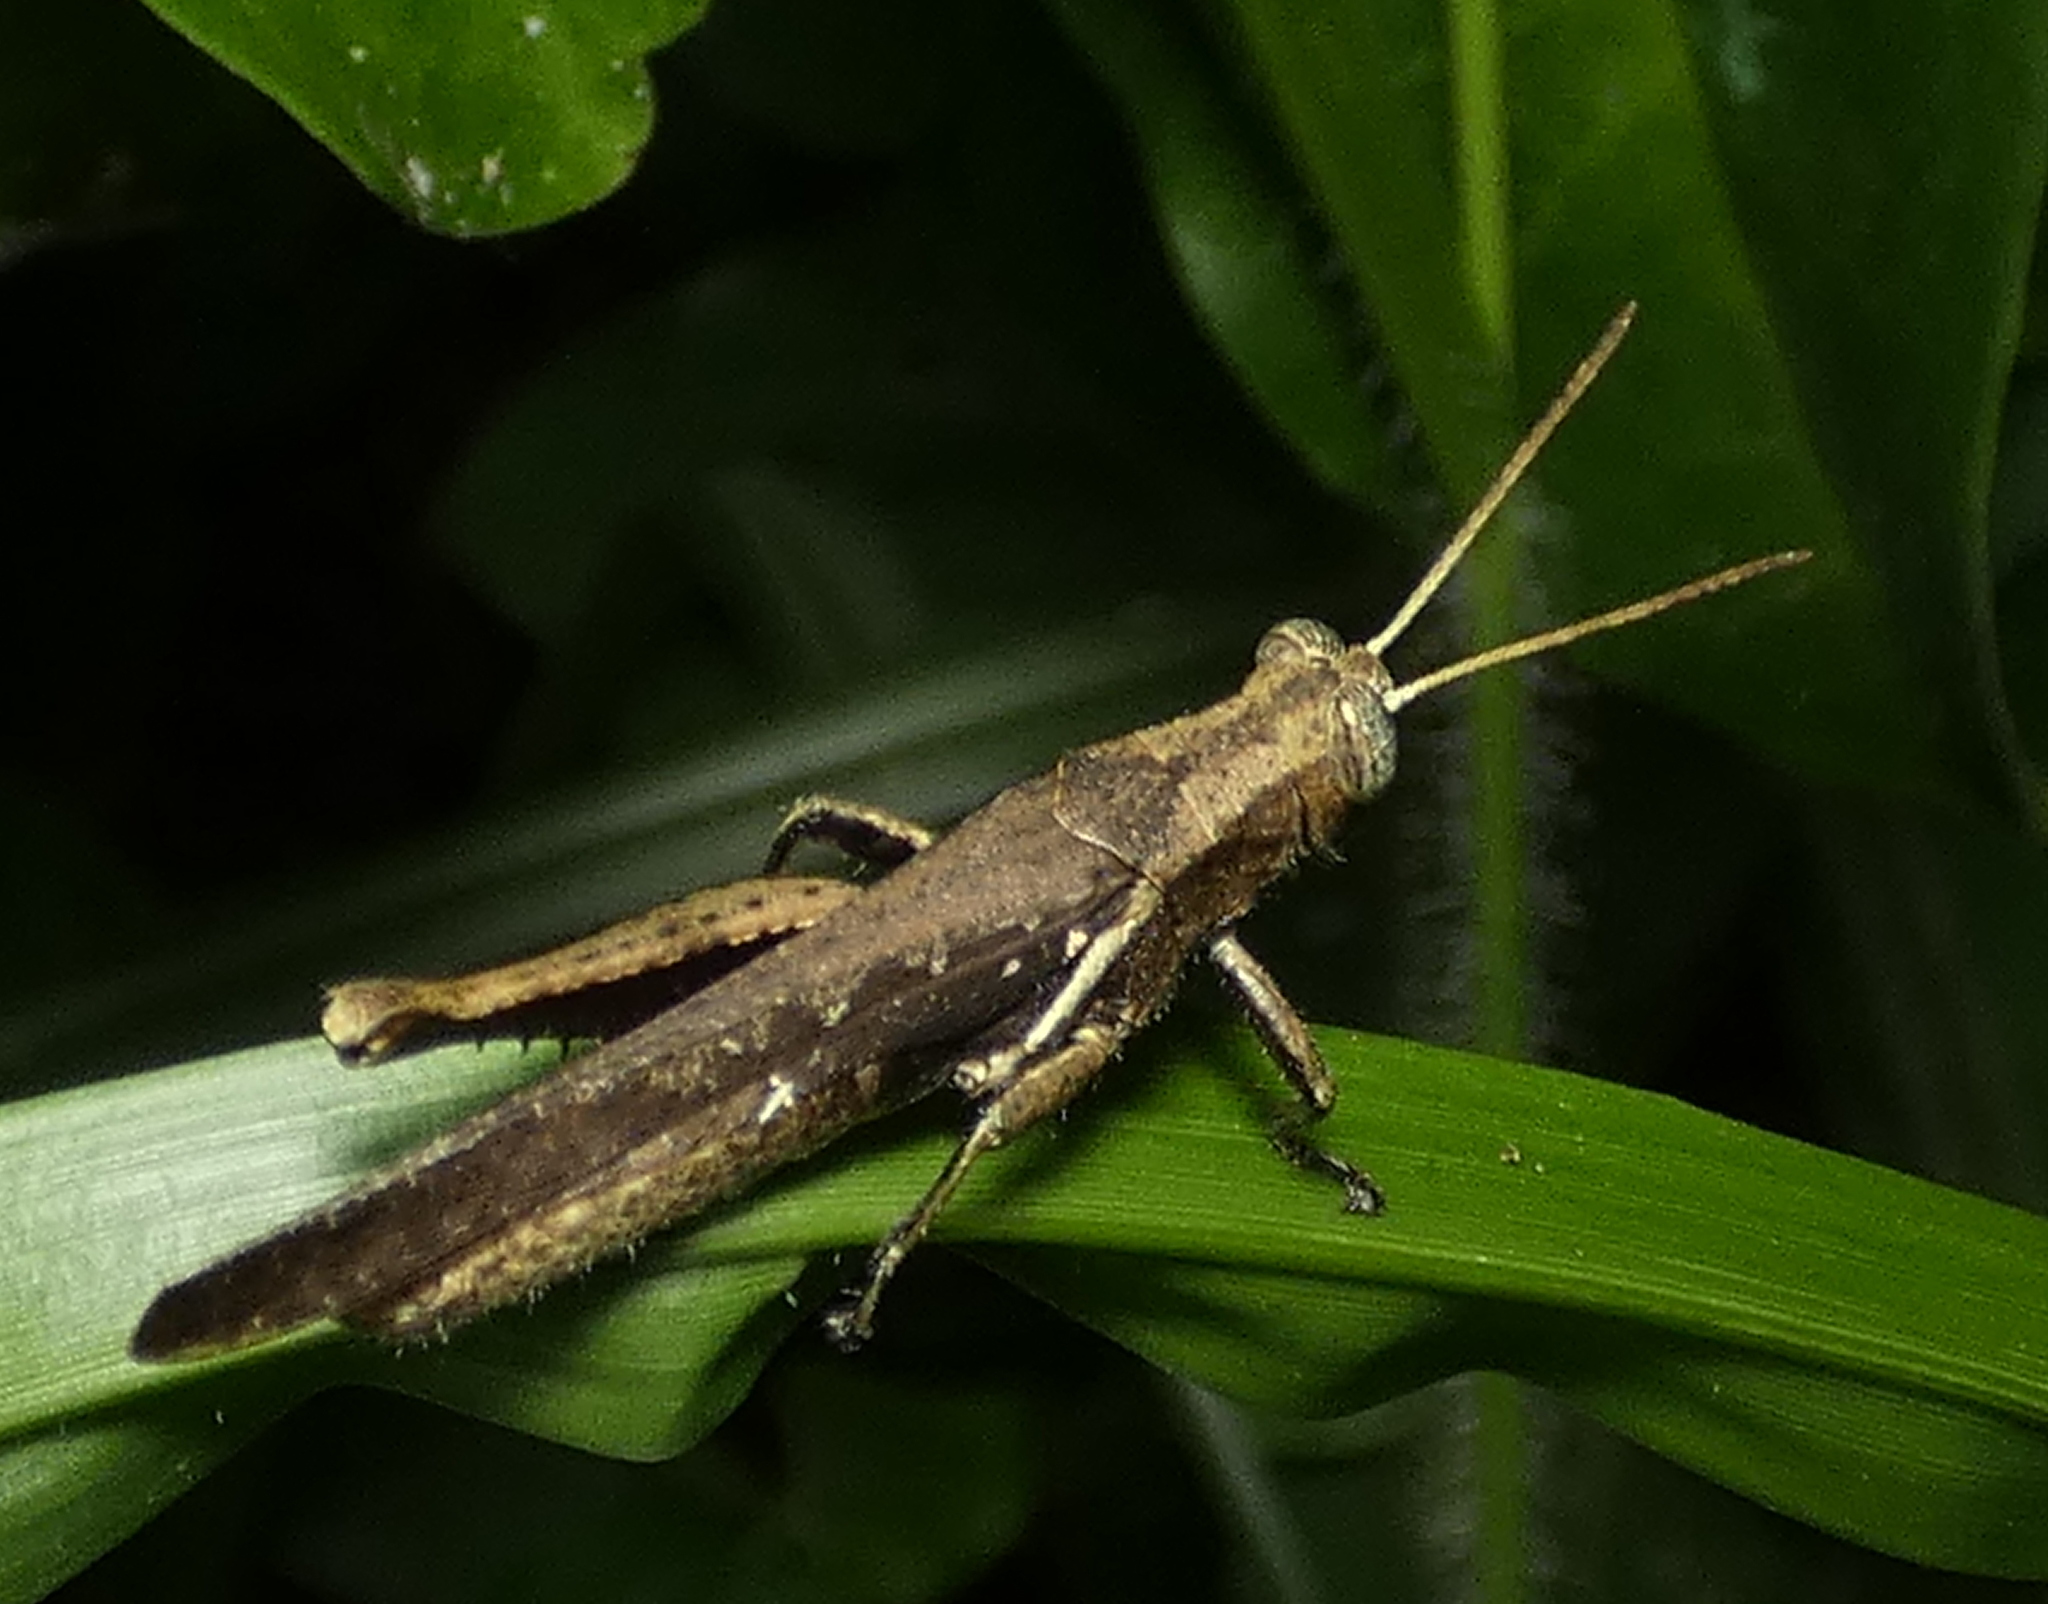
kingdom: Animalia
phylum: Arthropoda
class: Insecta
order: Orthoptera
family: Acrididae
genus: Abracris
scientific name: Abracris flavolineata
